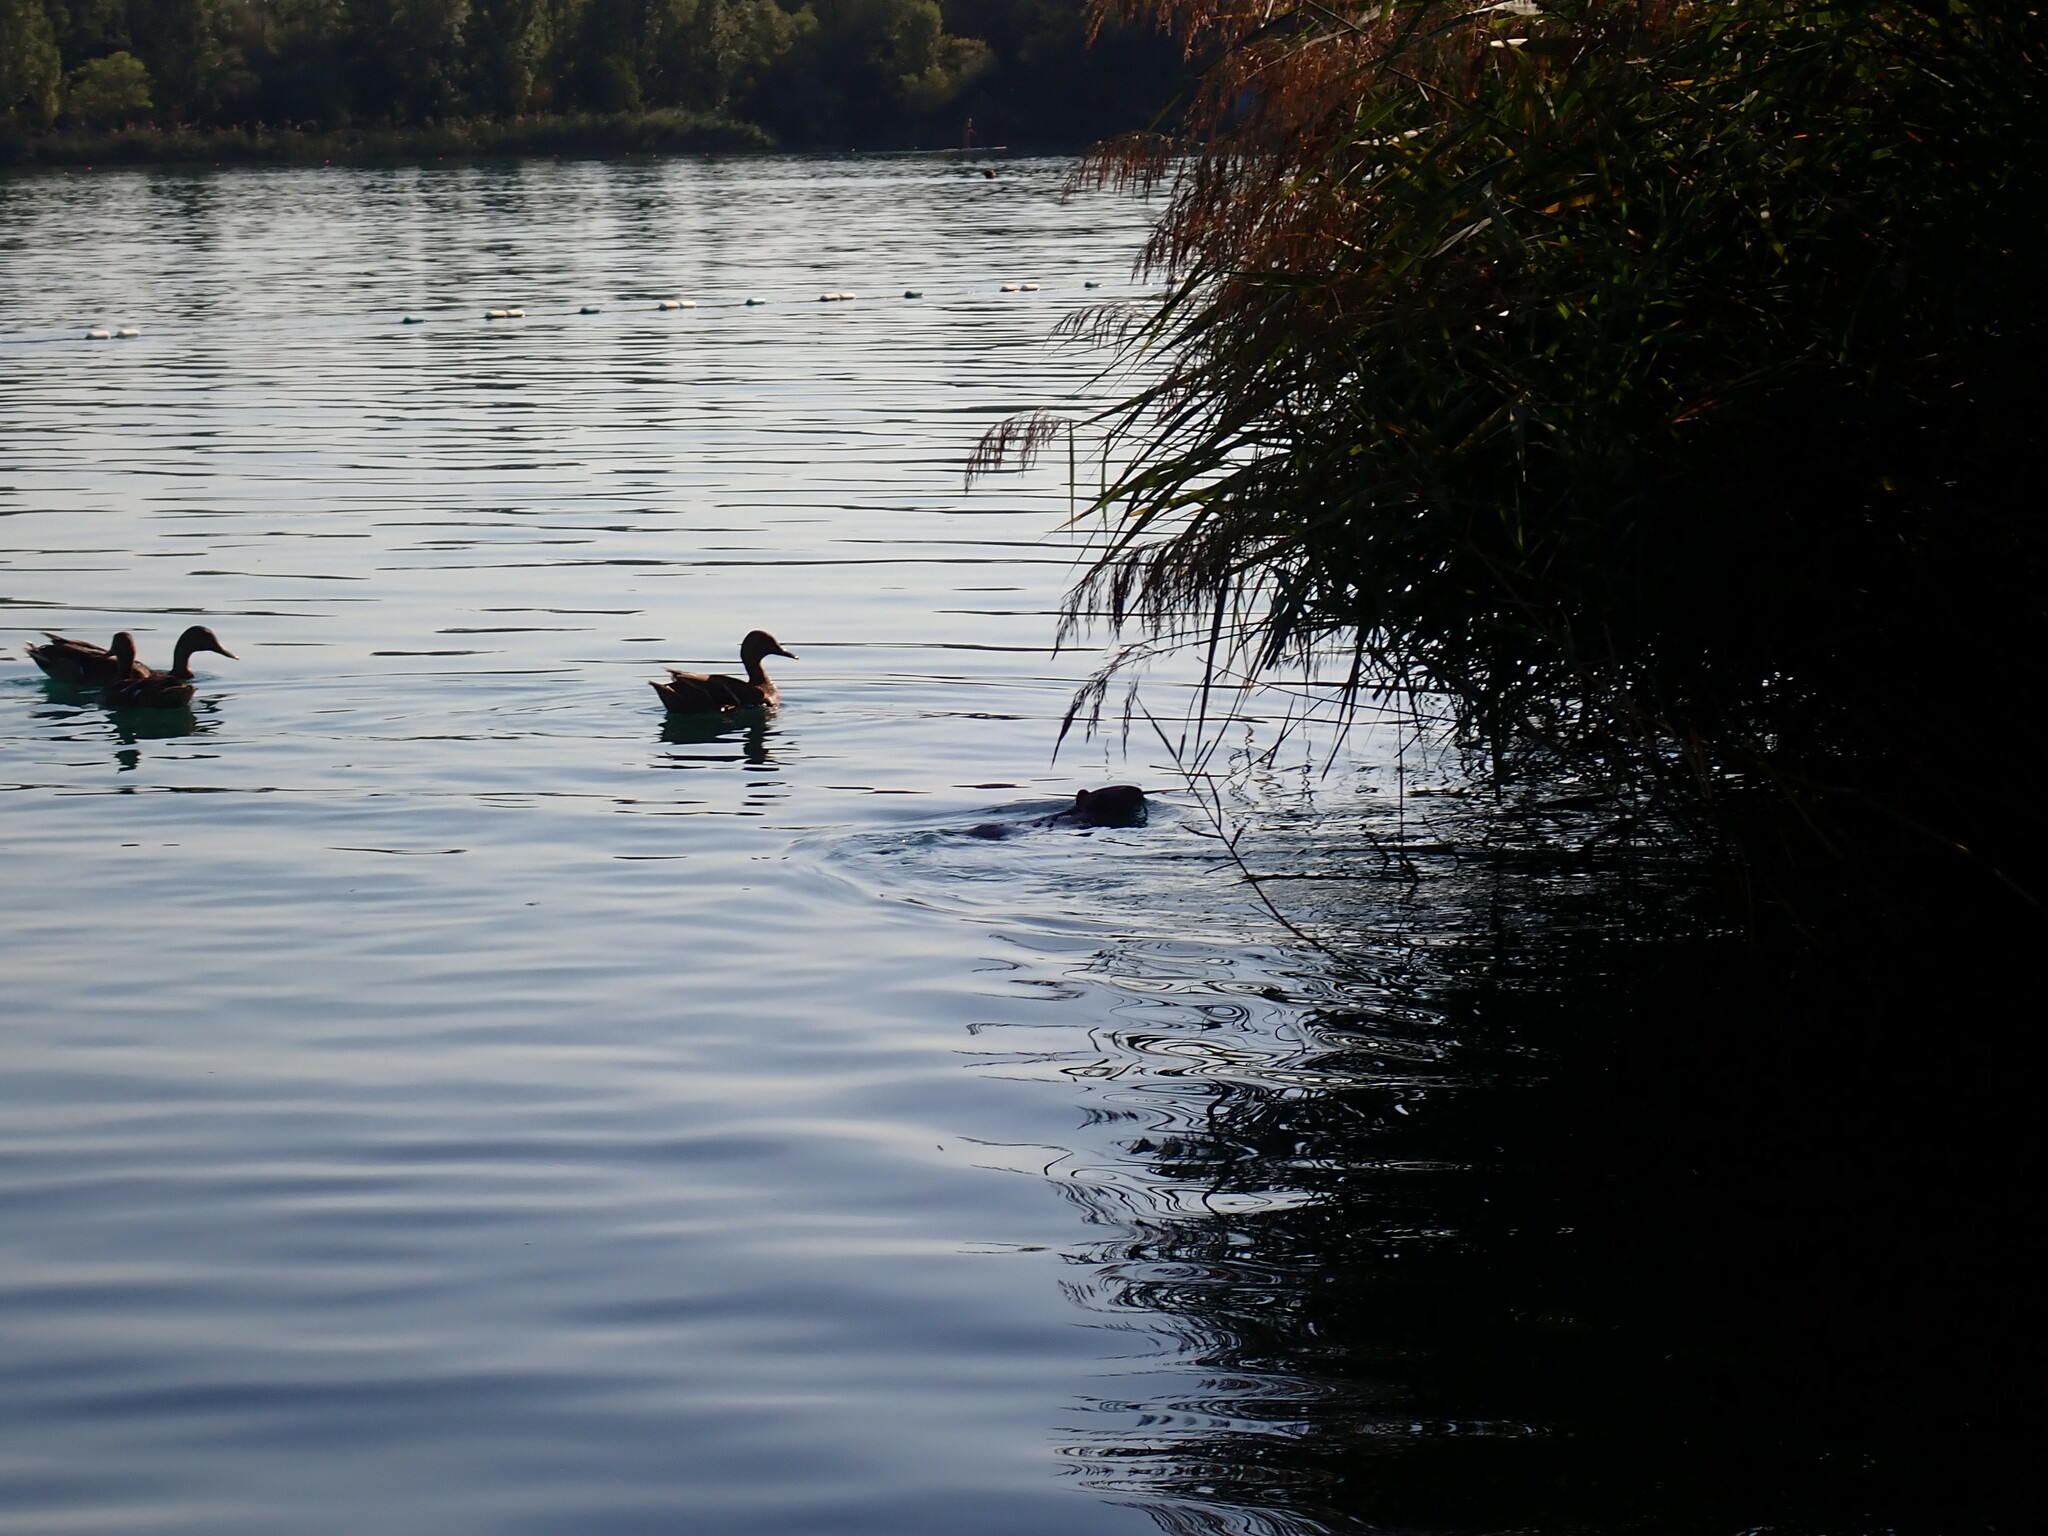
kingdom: Animalia
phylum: Chordata
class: Mammalia
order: Rodentia
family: Myocastoridae
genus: Myocastor
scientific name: Myocastor coypus
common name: Coypu
